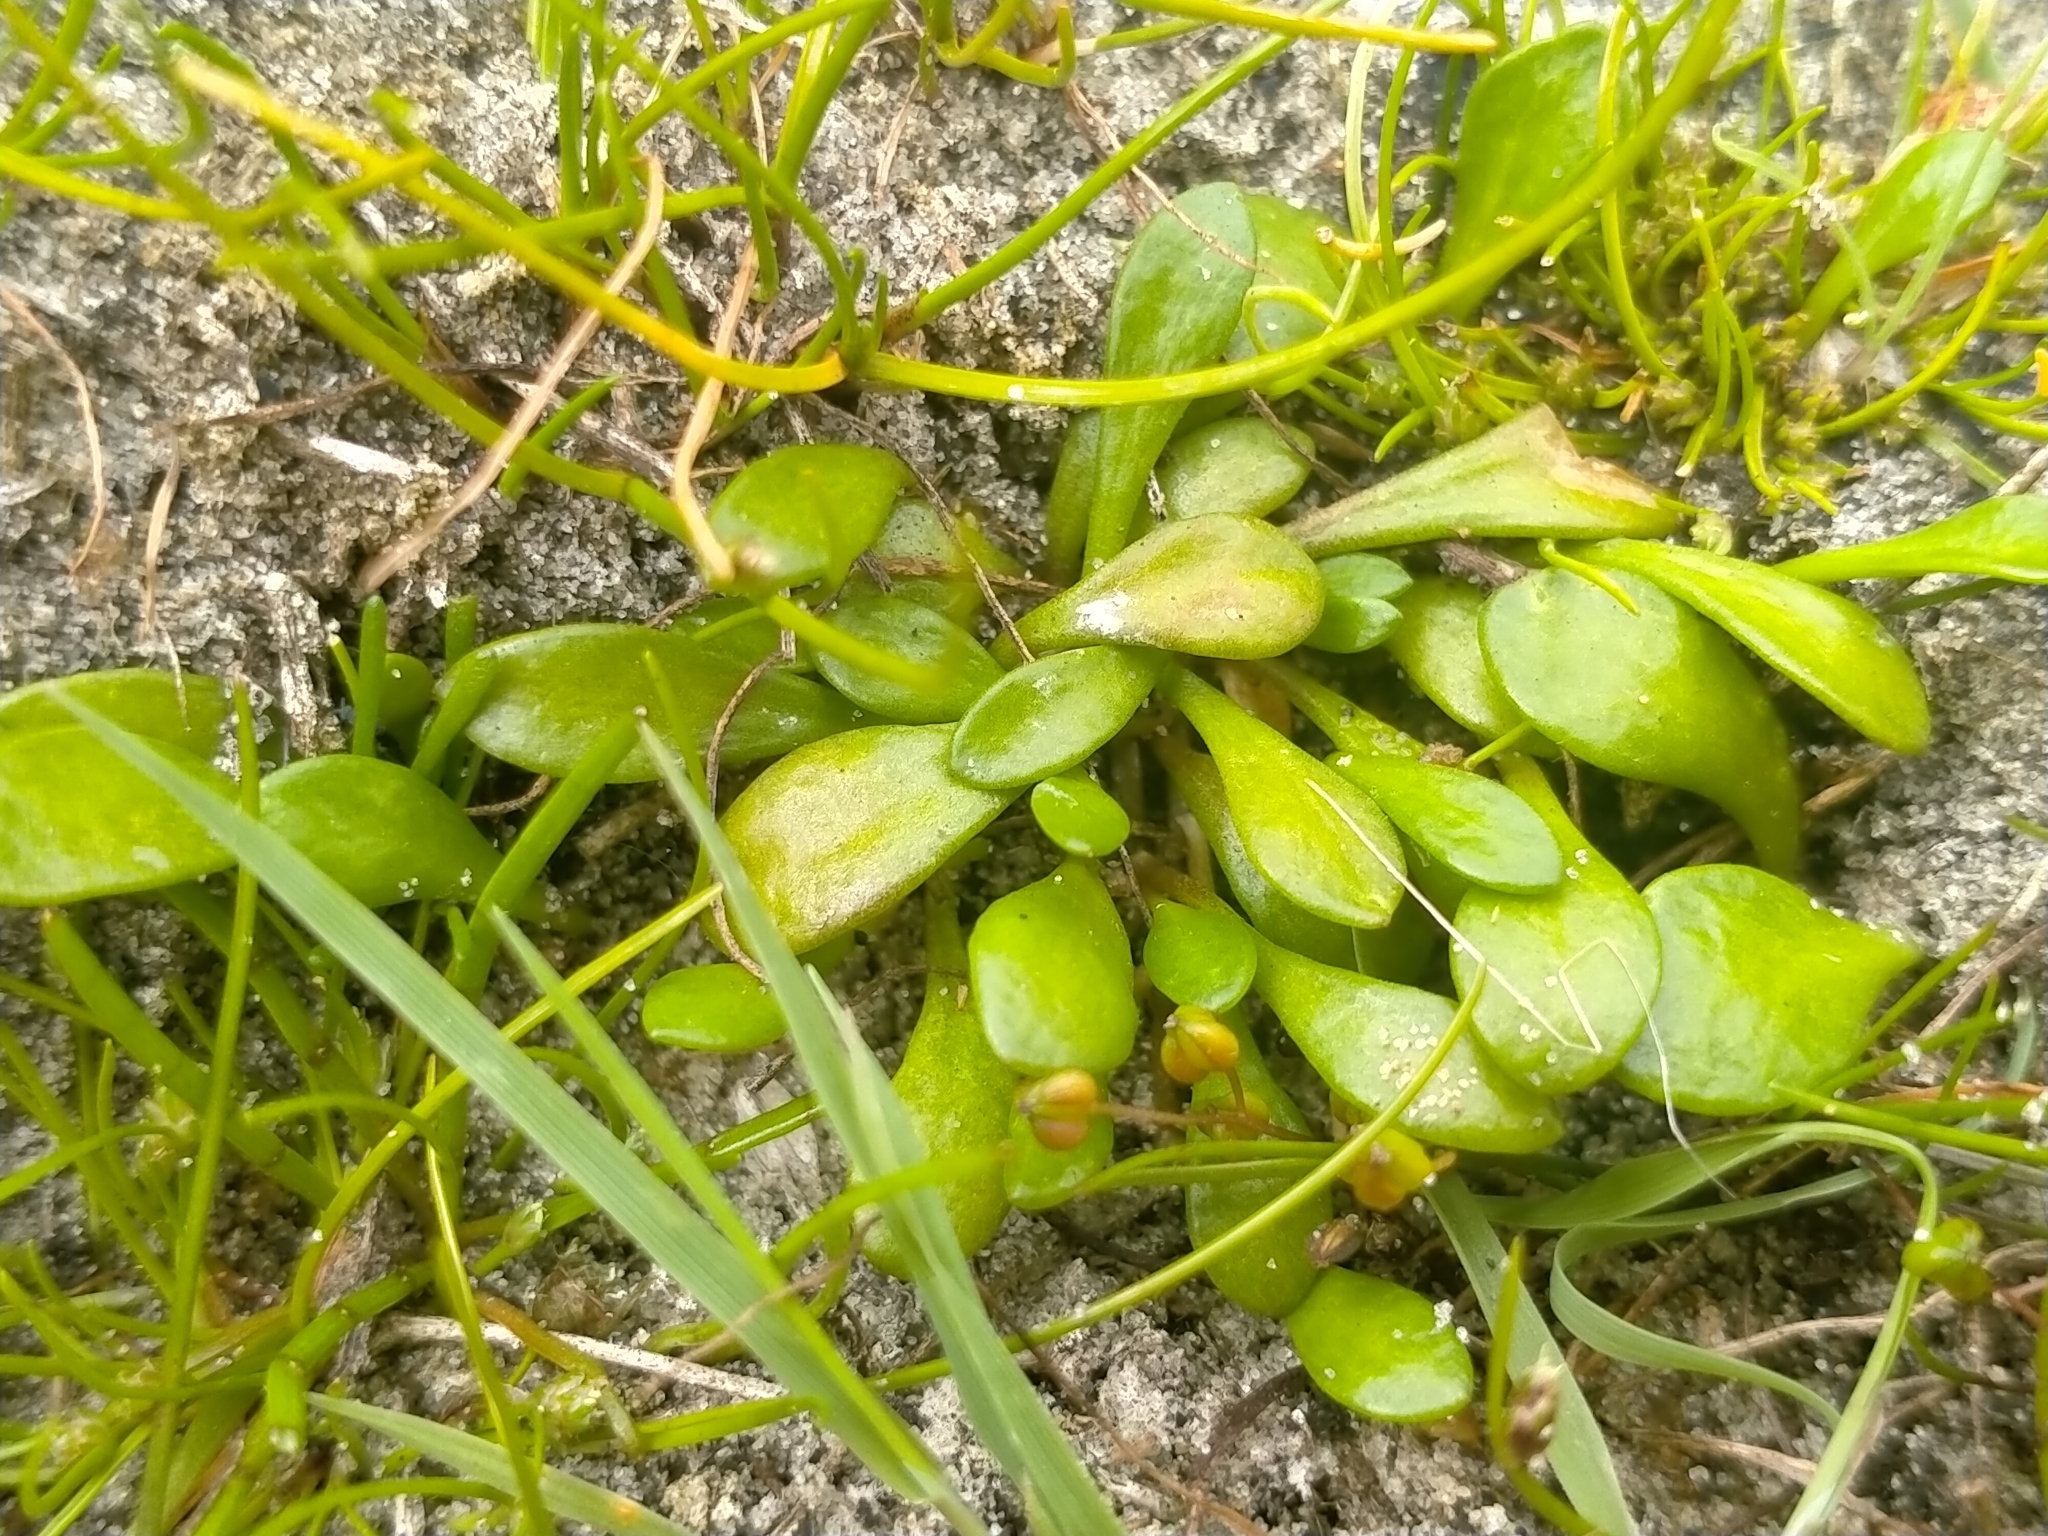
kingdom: Plantae
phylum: Tracheophyta
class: Magnoliopsida
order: Asterales
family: Goodeniaceae
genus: Goodenia
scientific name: Goodenia radicans
